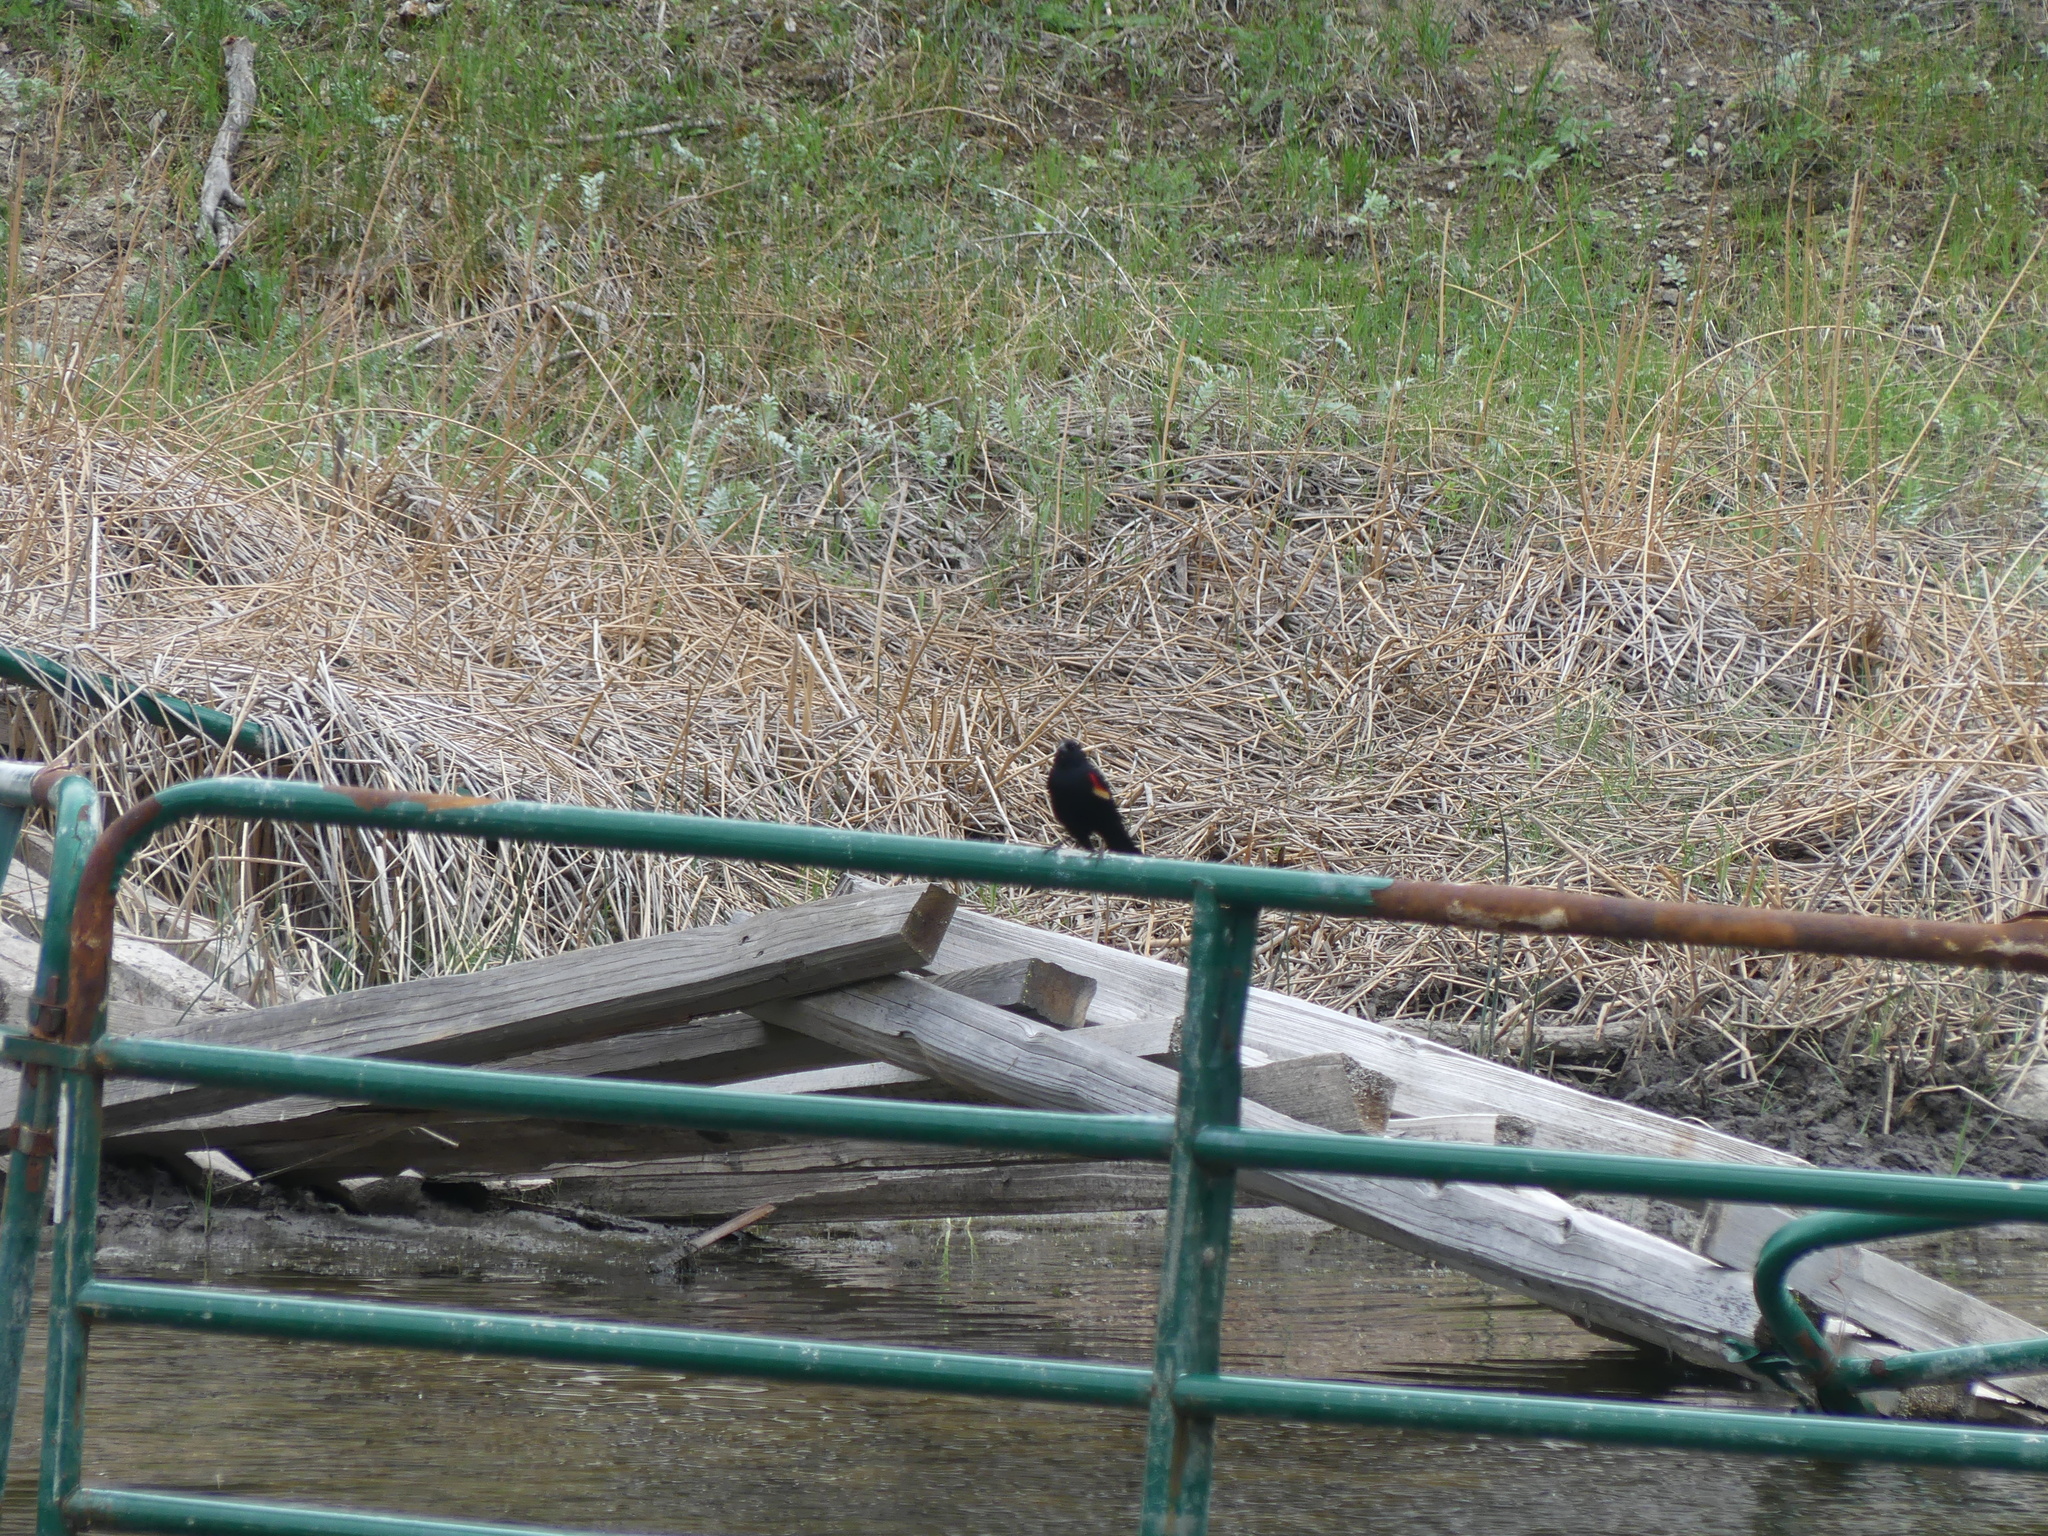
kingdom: Animalia
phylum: Chordata
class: Aves
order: Passeriformes
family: Icteridae
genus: Agelaius
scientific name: Agelaius phoeniceus
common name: Red-winged blackbird
